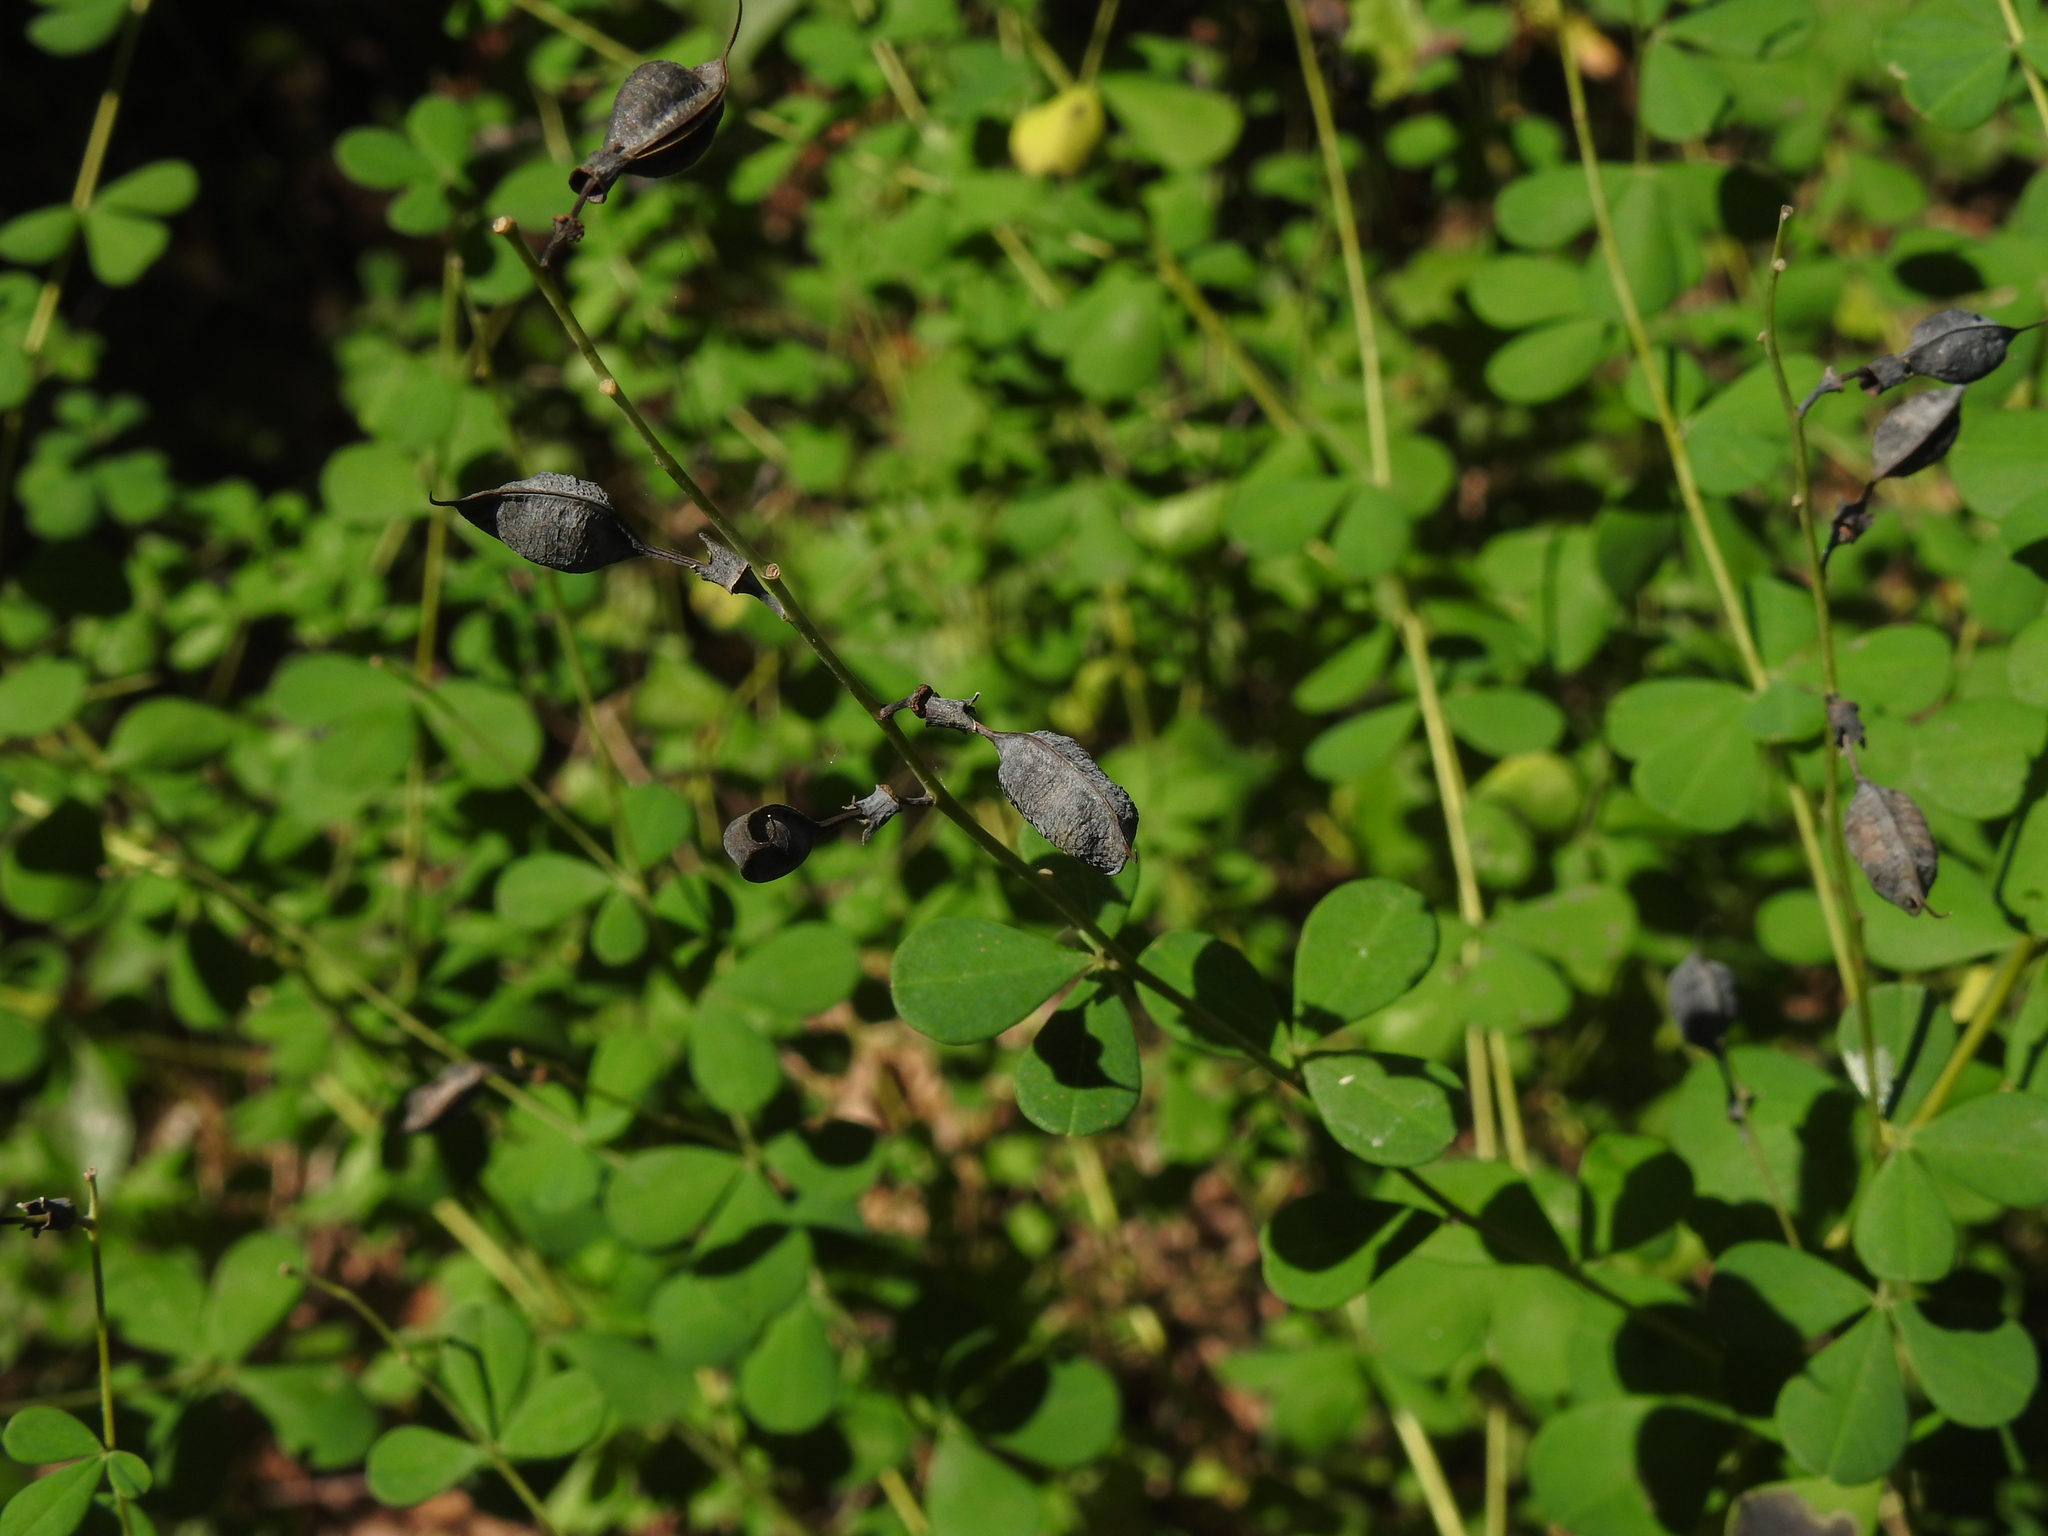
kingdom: Plantae
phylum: Tracheophyta
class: Magnoliopsida
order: Fabales
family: Fabaceae
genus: Baptisia
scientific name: Baptisia tinctoria
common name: Wild indigo
